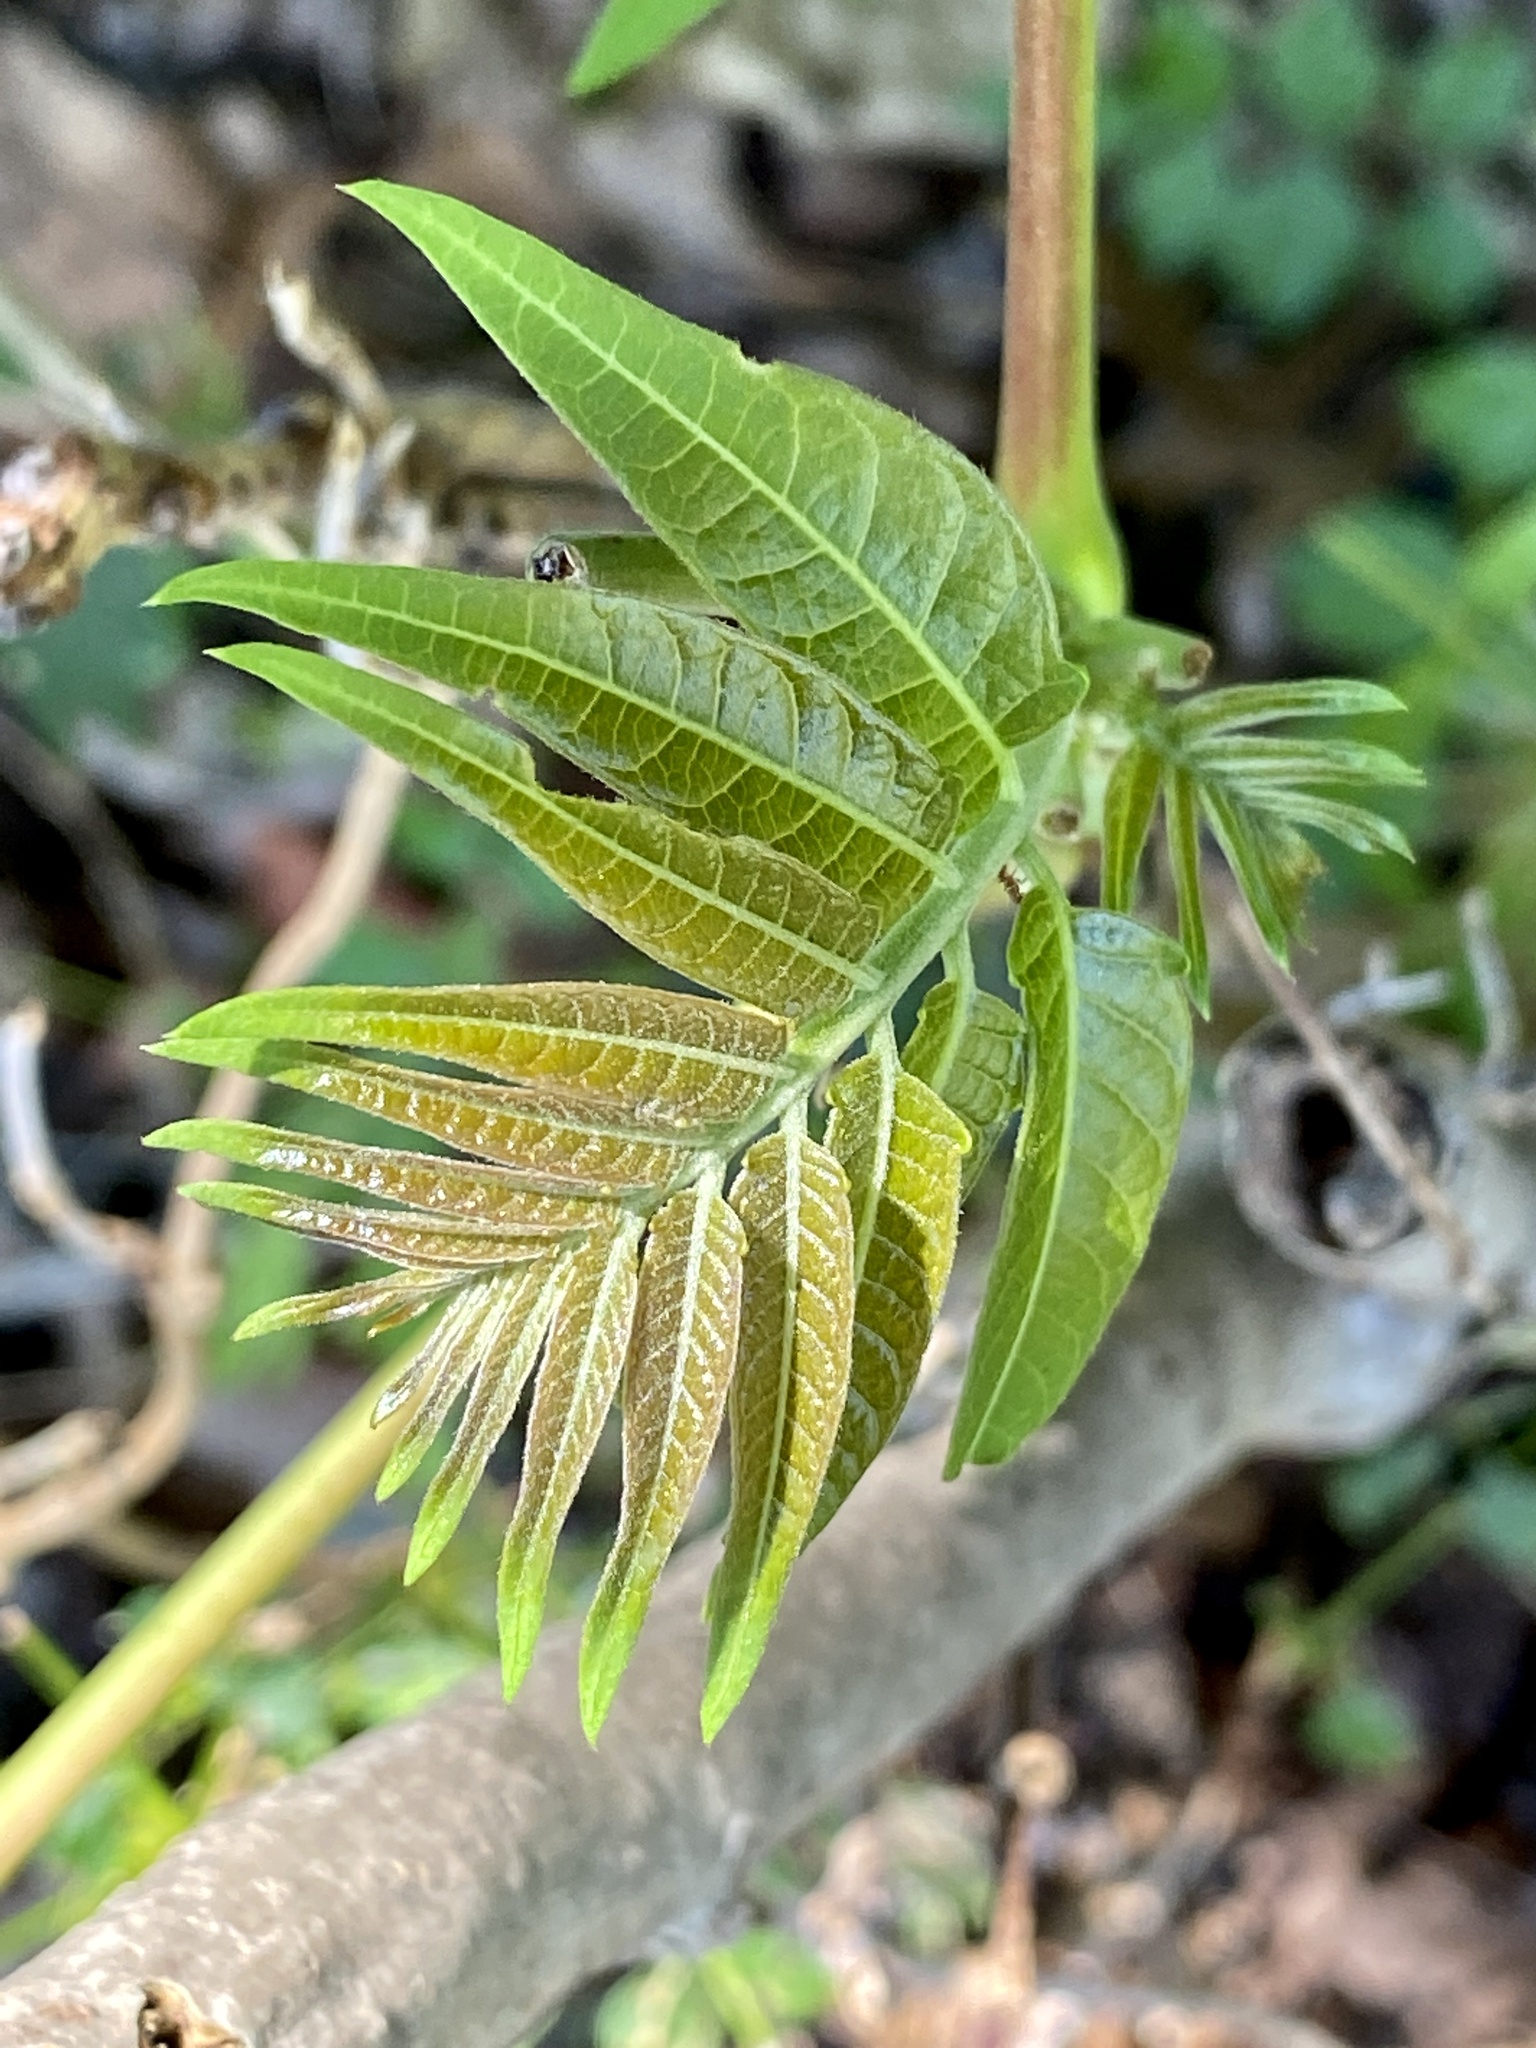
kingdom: Plantae
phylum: Tracheophyta
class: Magnoliopsida
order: Sapindales
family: Simaroubaceae
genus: Ailanthus
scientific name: Ailanthus altissima
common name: Tree-of-heaven
